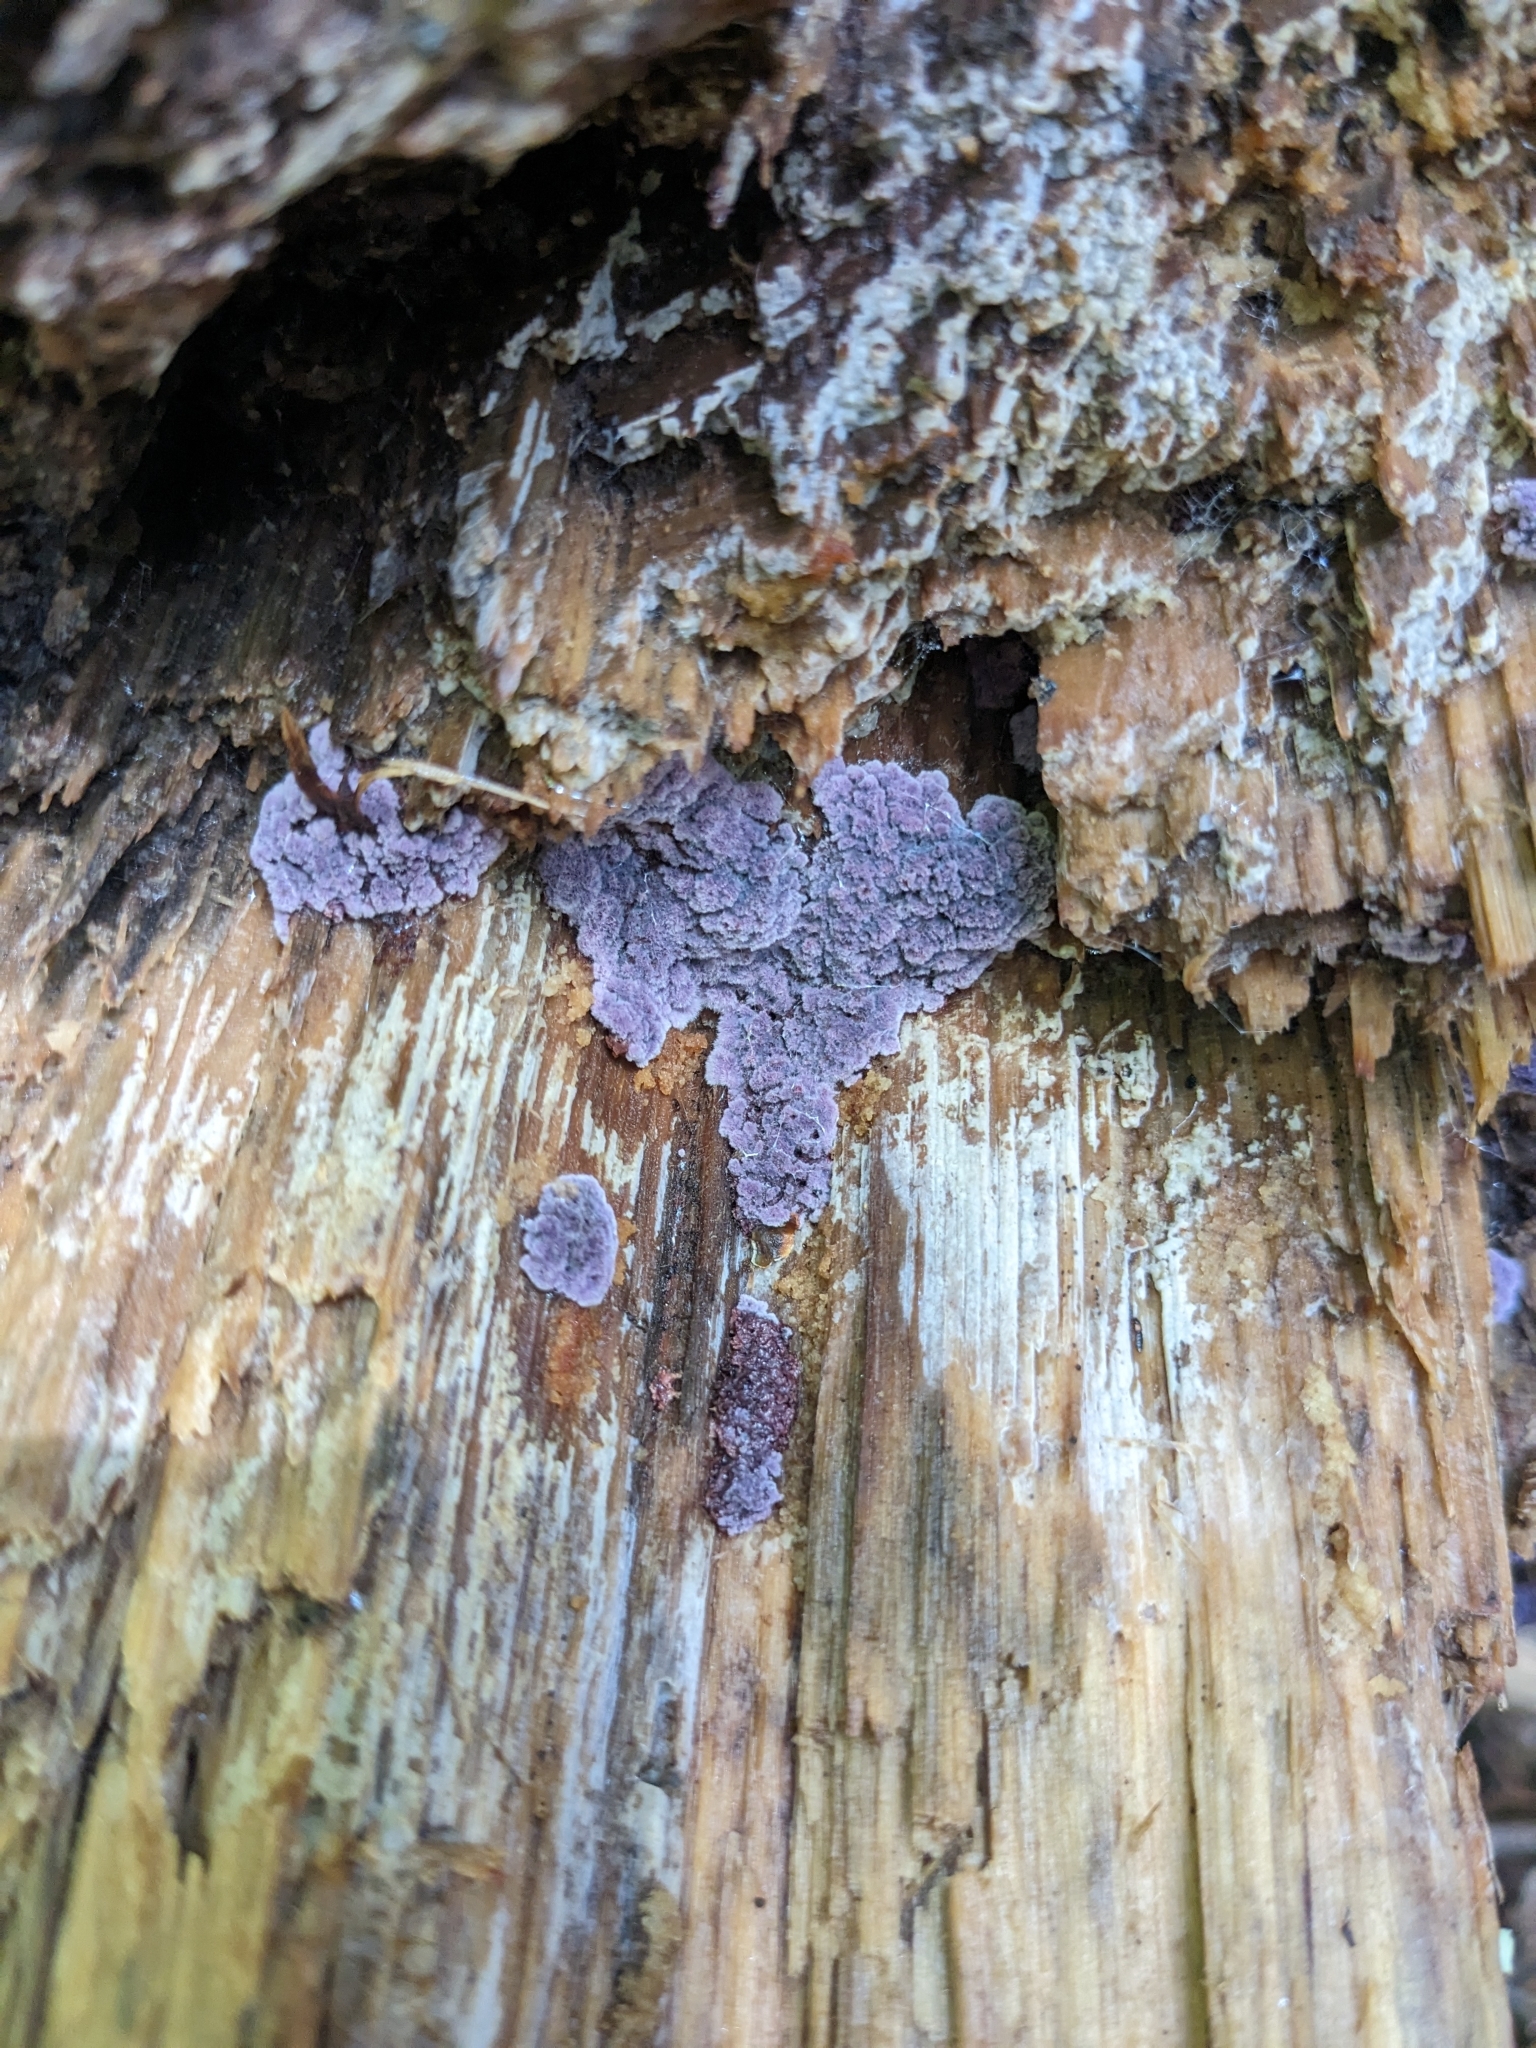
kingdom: Fungi
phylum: Basidiomycota
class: Agaricomycetes
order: Corticiales
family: Punctulariaceae
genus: Punctularia
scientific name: Punctularia atropurpurascens
